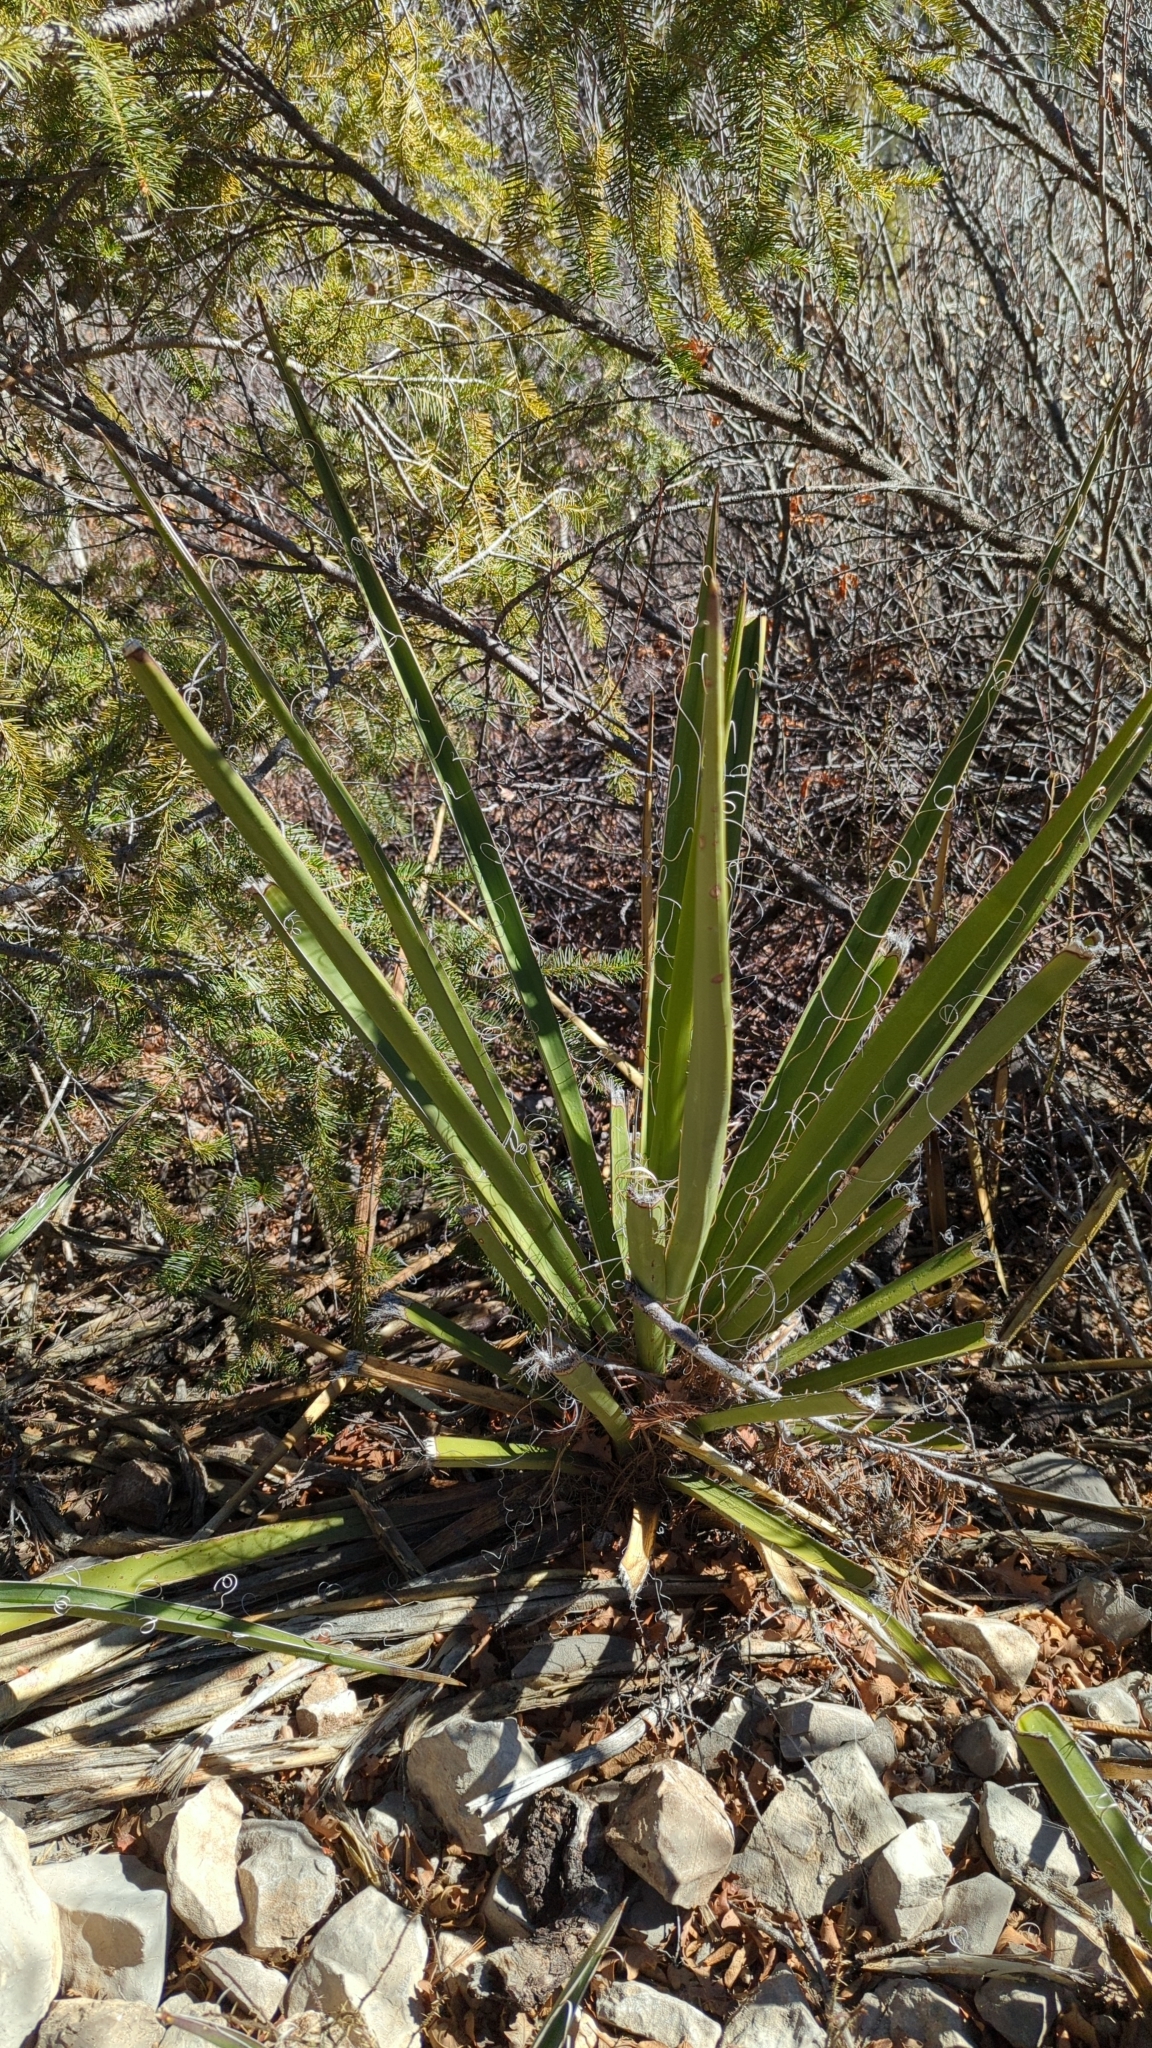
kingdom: Plantae
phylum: Tracheophyta
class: Liliopsida
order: Asparagales
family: Asparagaceae
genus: Yucca
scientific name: Yucca baccata
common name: Banana yucca
